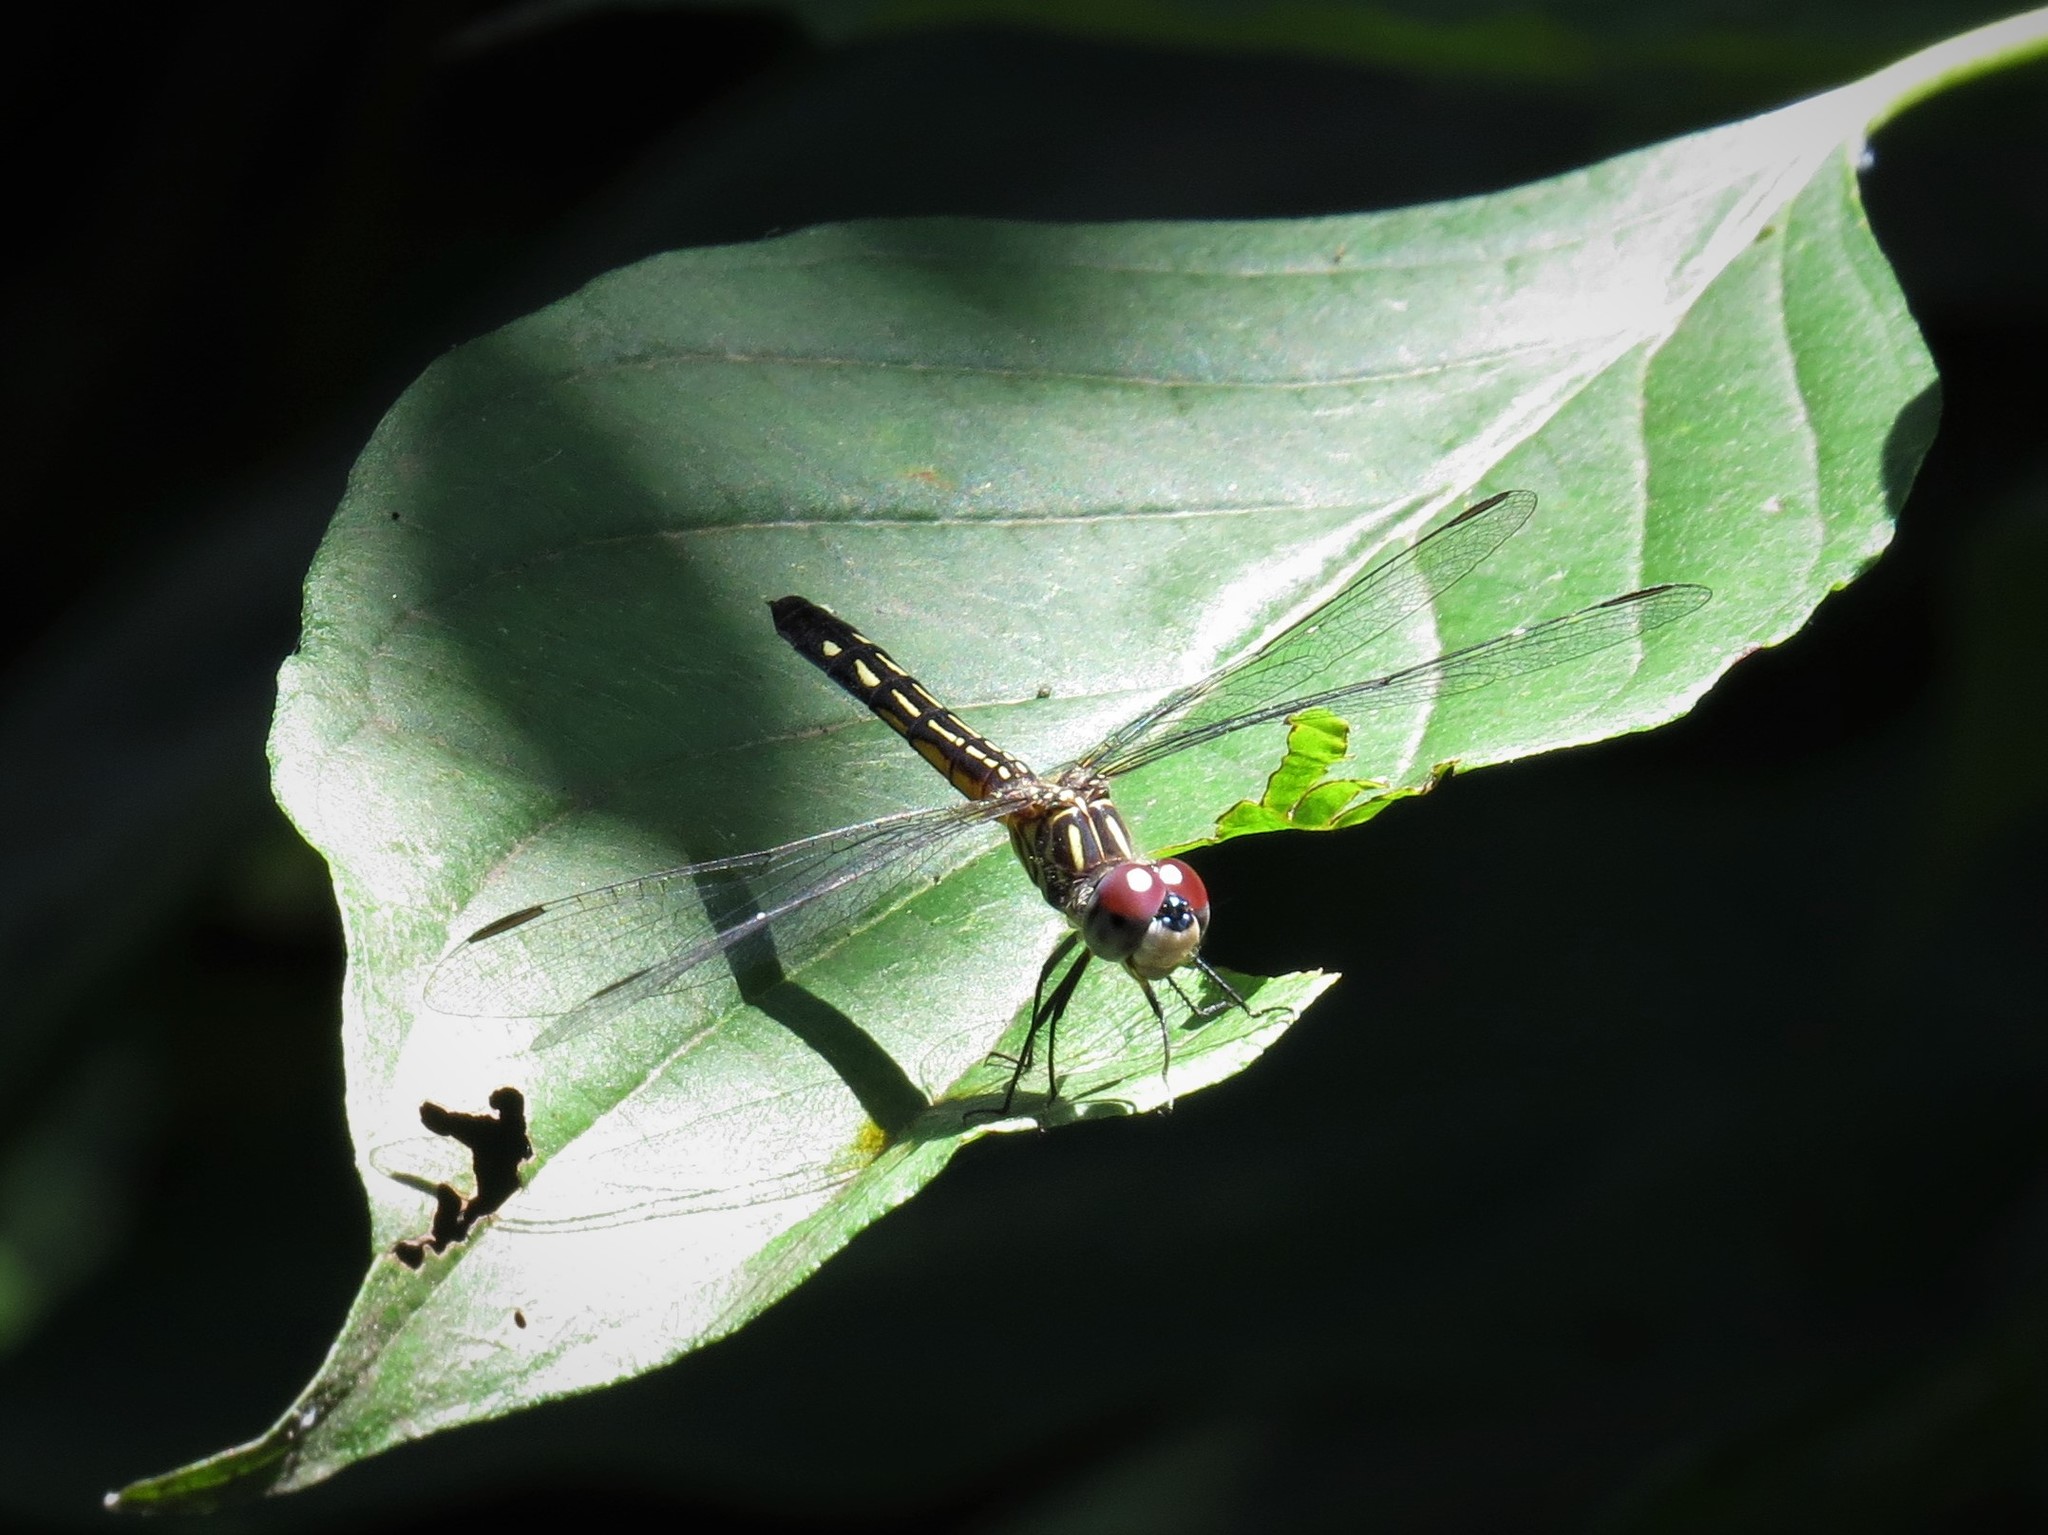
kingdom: Animalia
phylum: Arthropoda
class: Insecta
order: Odonata
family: Libellulidae
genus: Pachydiplax
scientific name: Pachydiplax longipennis
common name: Blue dasher
